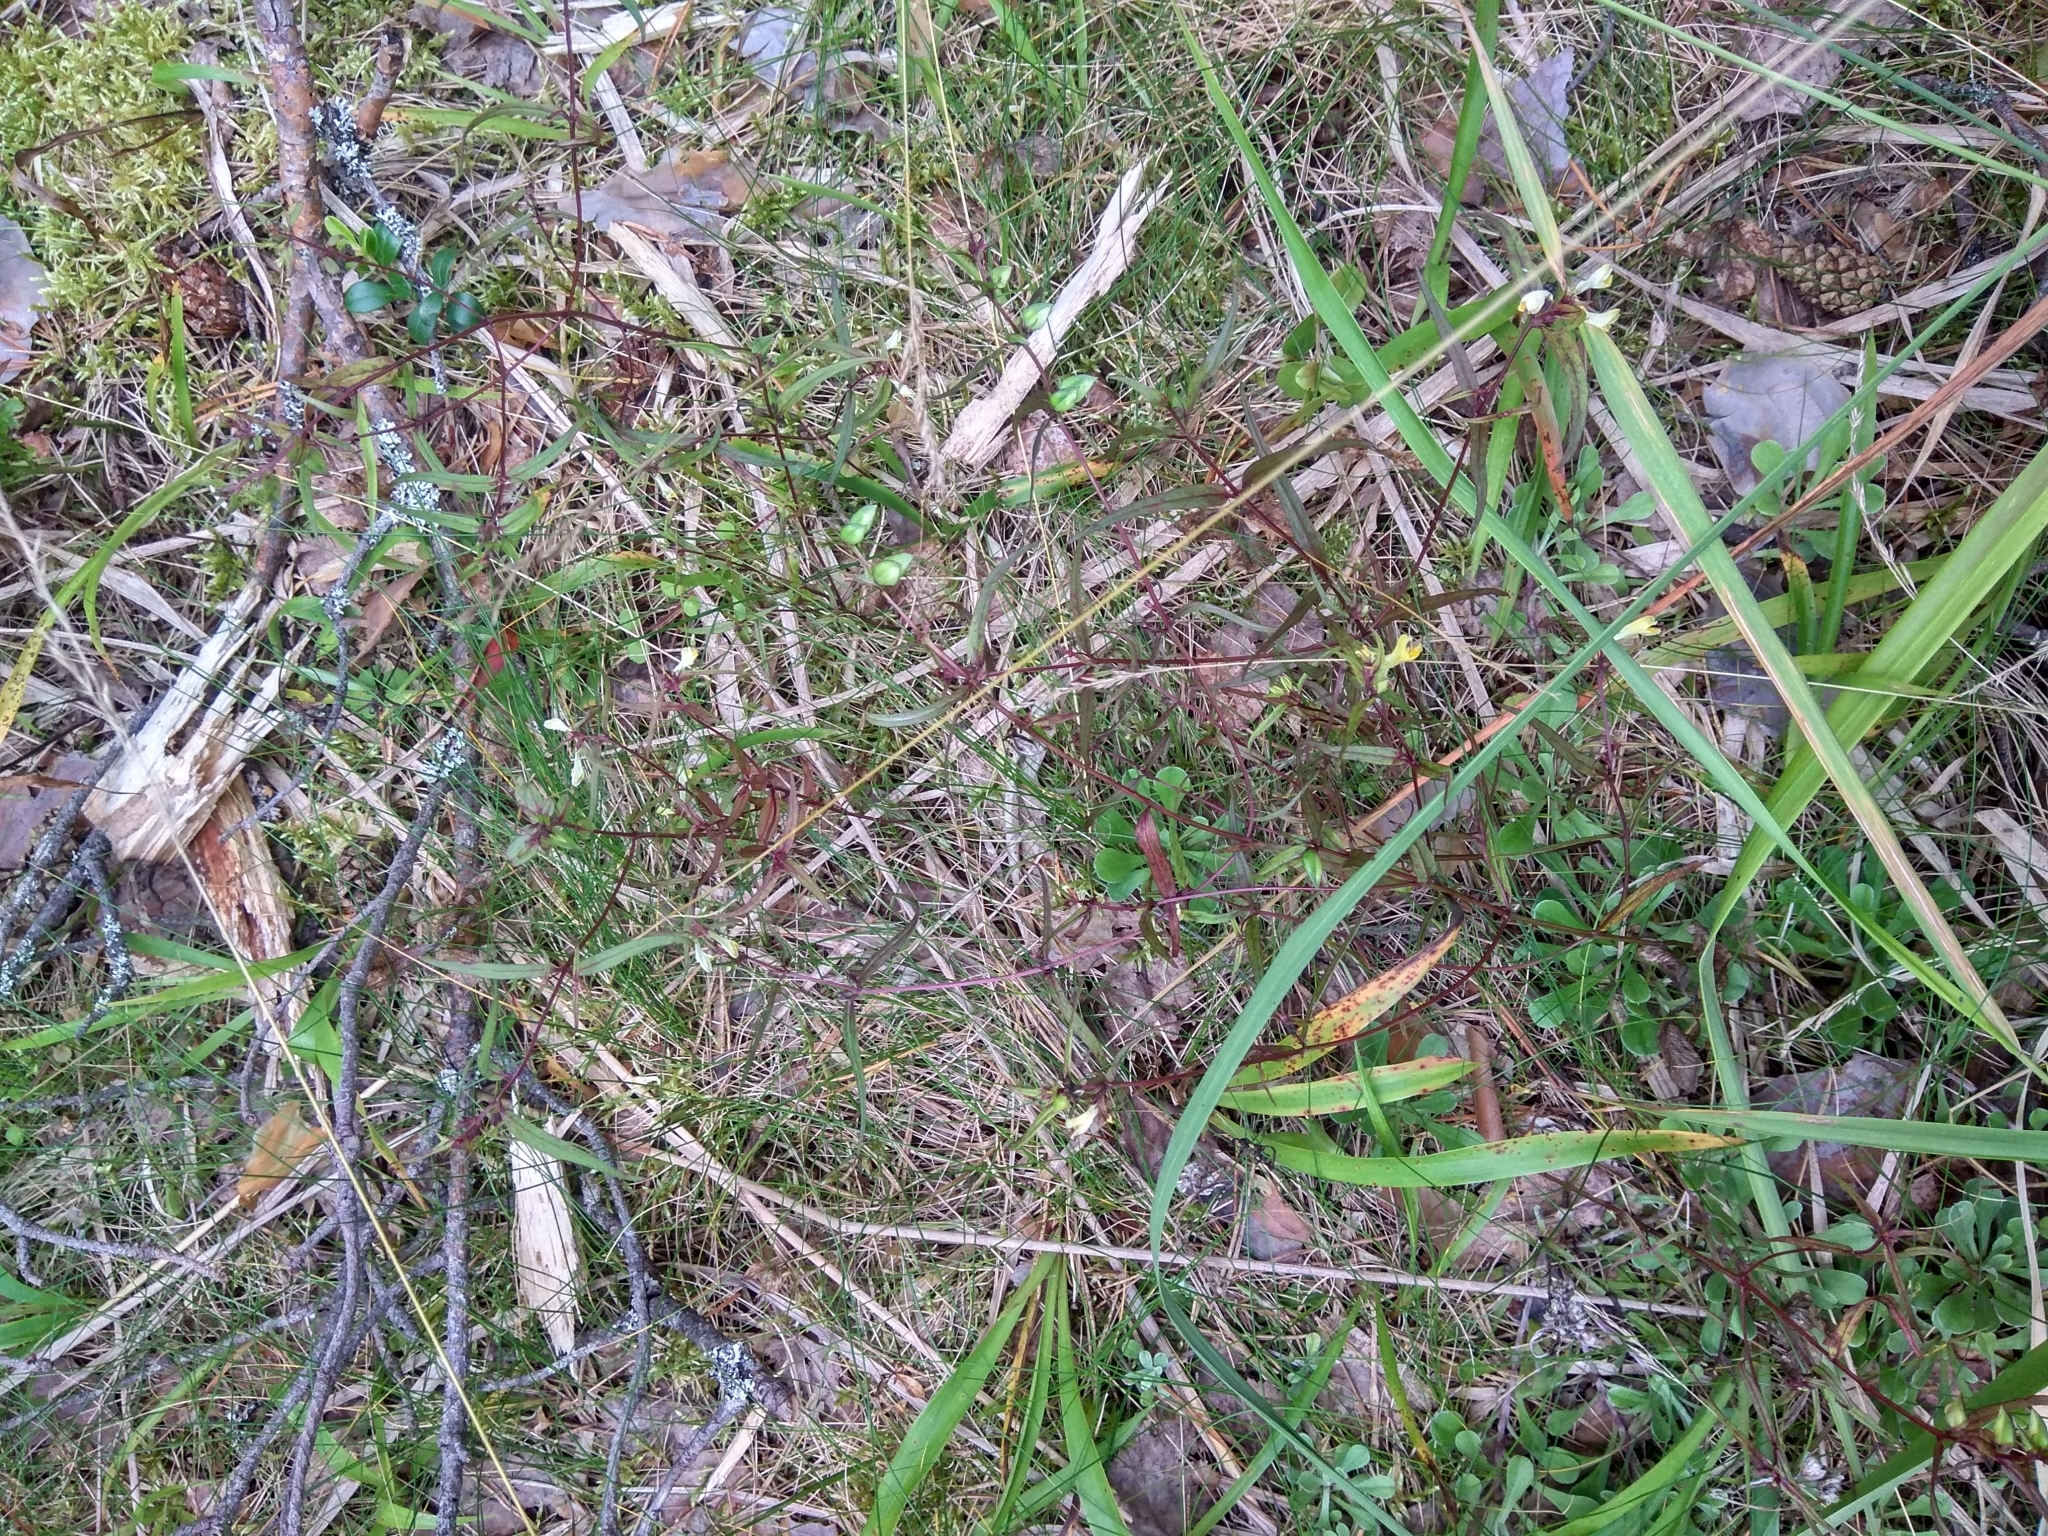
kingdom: Plantae
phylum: Tracheophyta
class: Magnoliopsida
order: Lamiales
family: Orobanchaceae
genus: Melampyrum
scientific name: Melampyrum pratense
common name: Common cow-wheat
